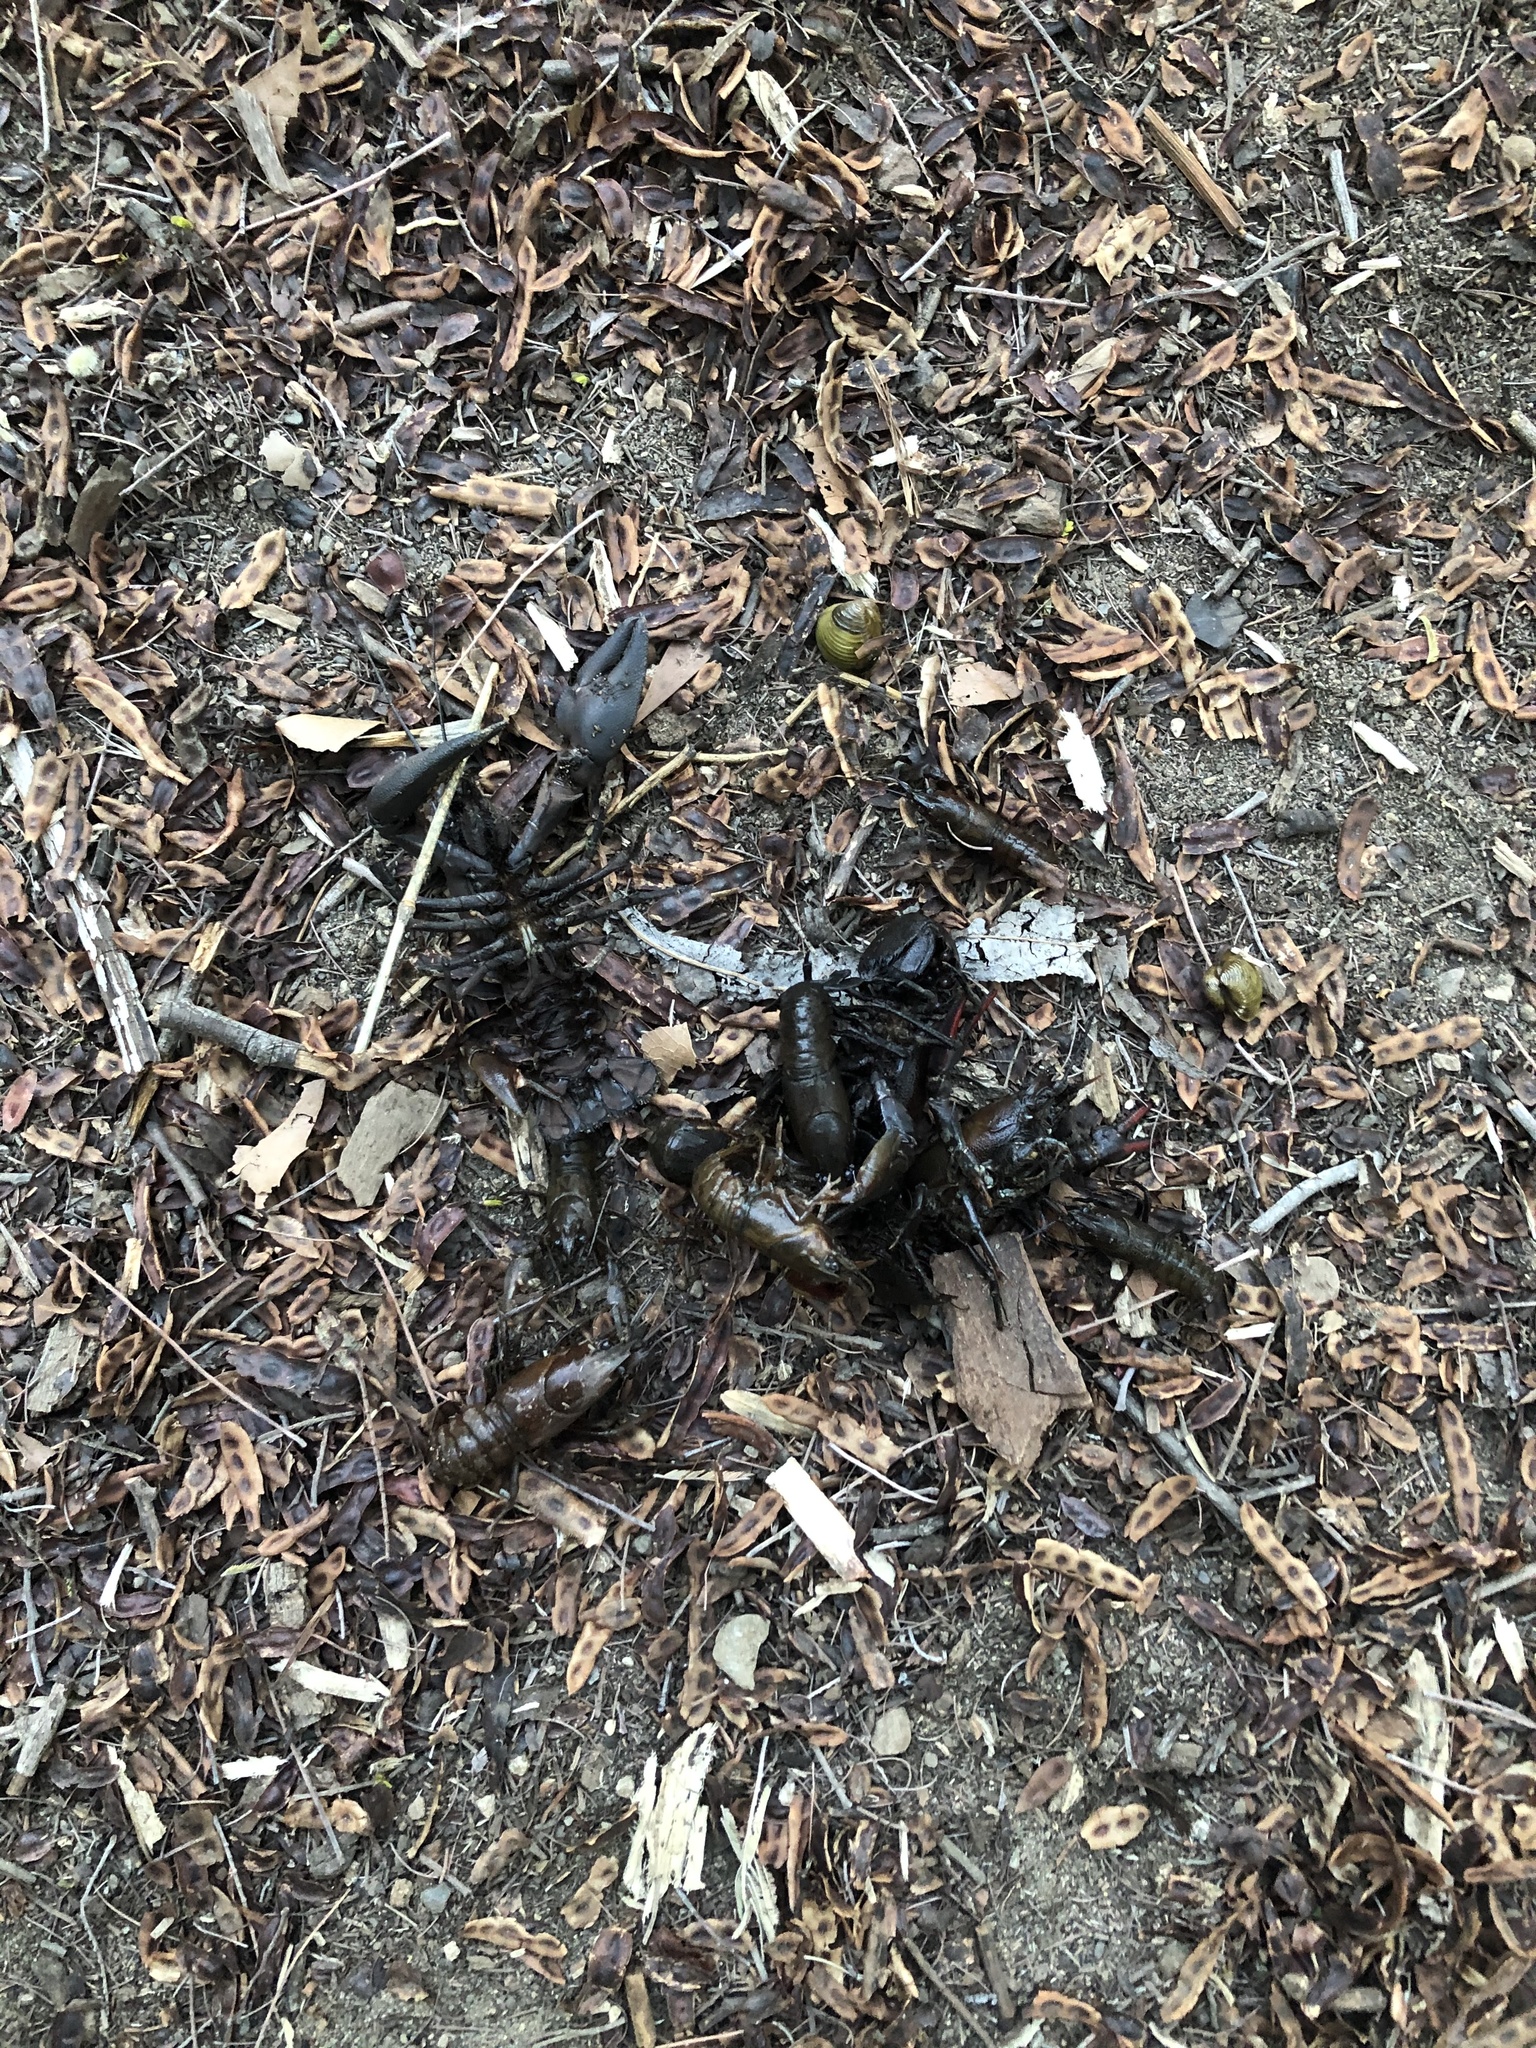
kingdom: Animalia
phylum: Arthropoda
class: Malacostraca
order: Decapoda
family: Astacidae
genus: Pacifastacus
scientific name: Pacifastacus leniusculus
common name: Signal crayfish
